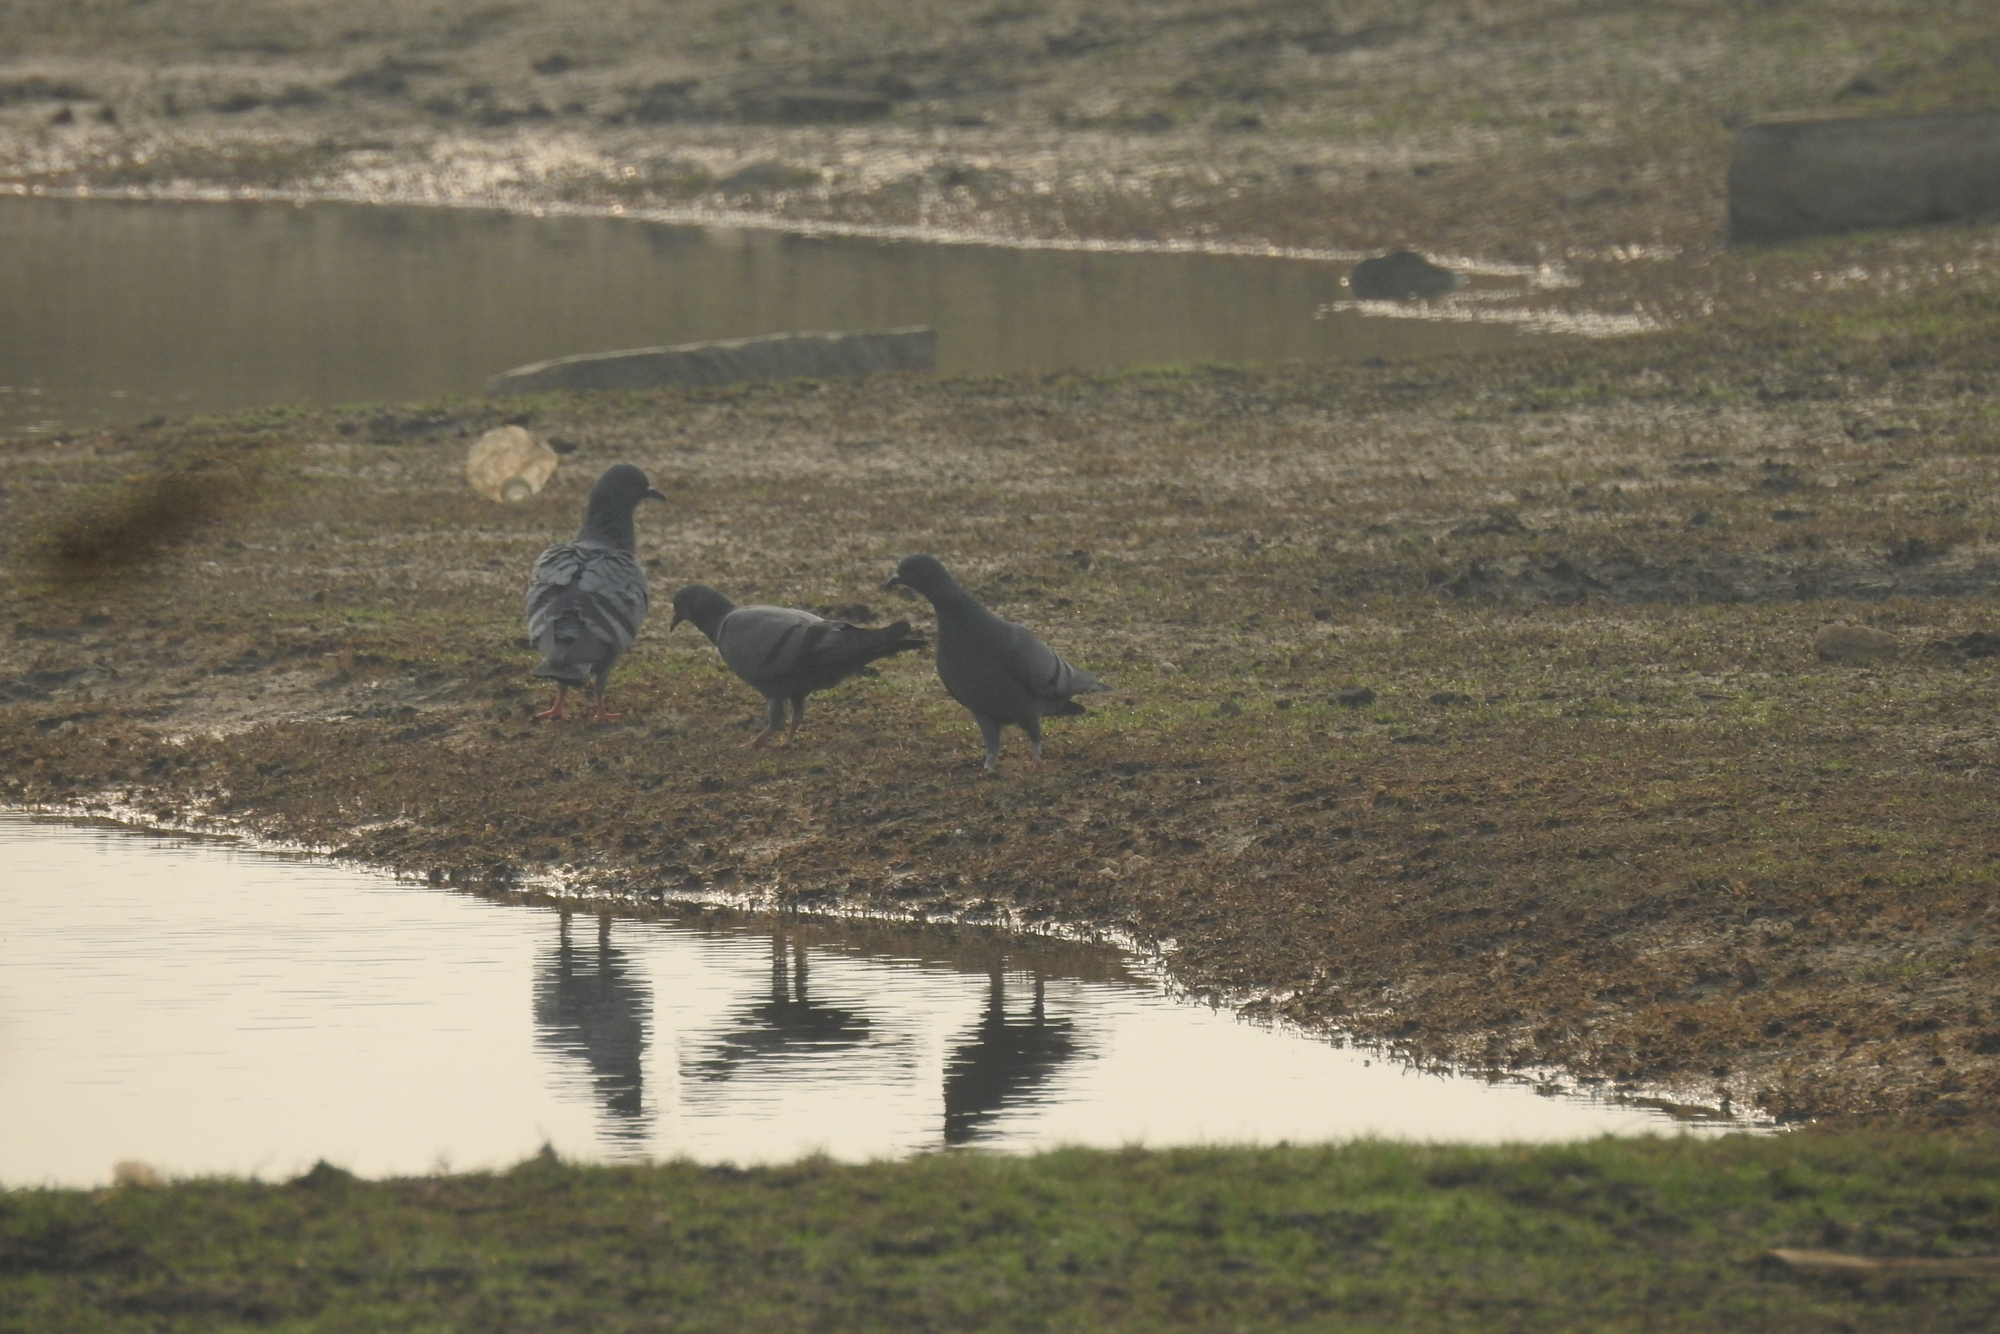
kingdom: Animalia
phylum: Chordata
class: Aves
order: Columbiformes
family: Columbidae
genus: Columba
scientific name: Columba livia
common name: Rock pigeon
